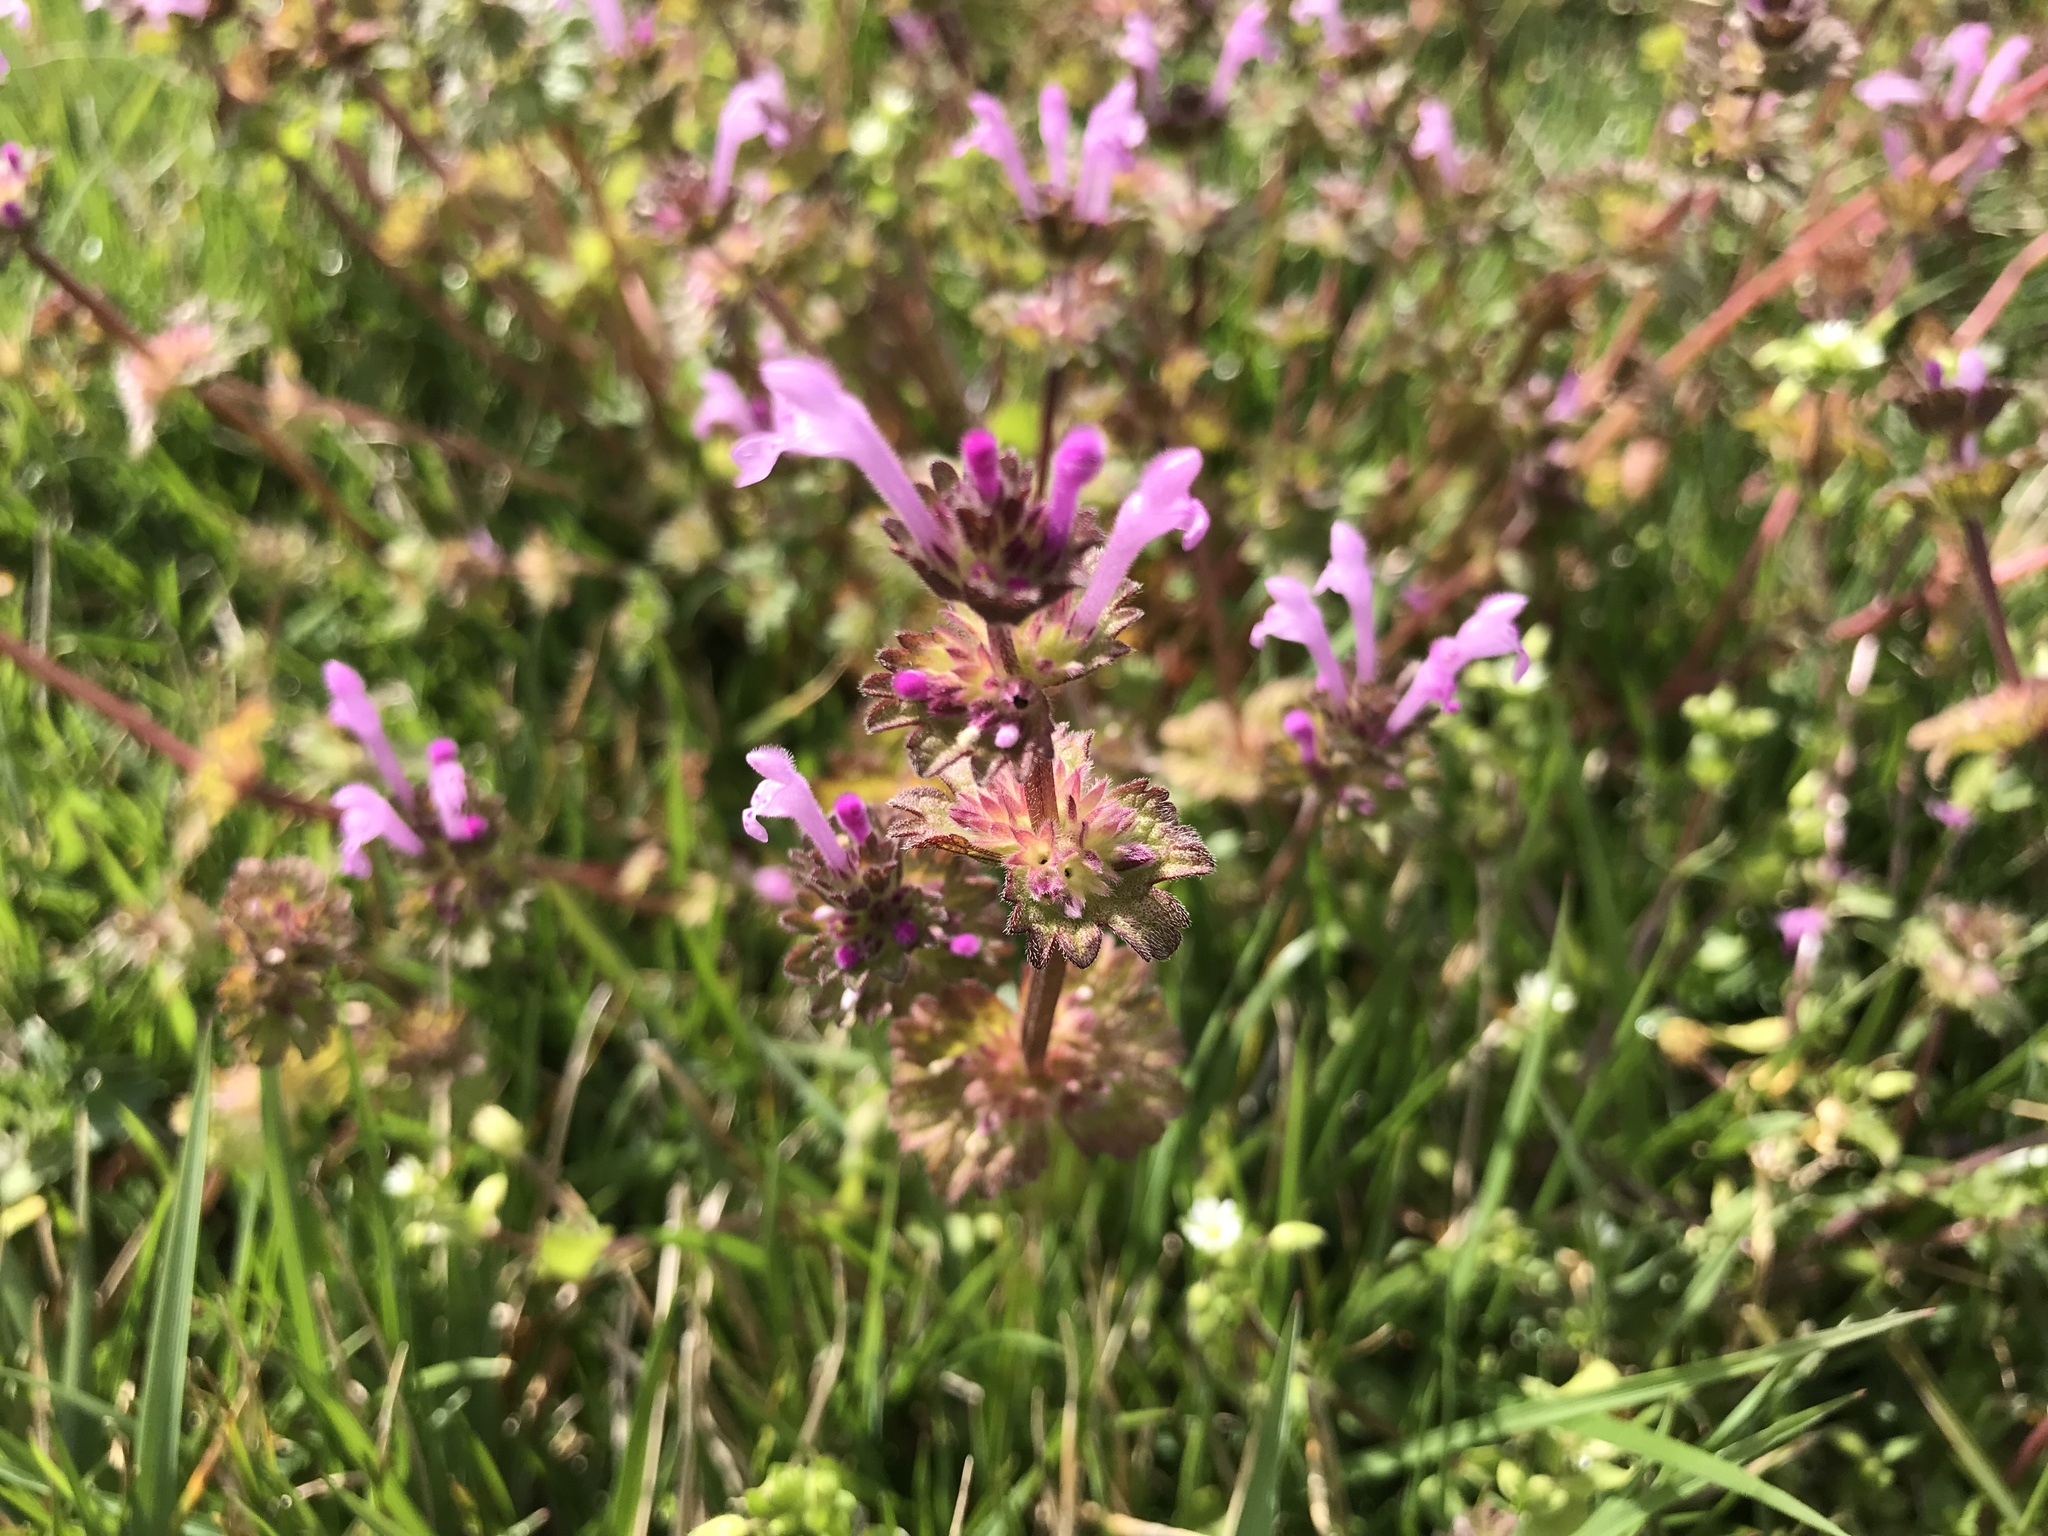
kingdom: Plantae
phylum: Tracheophyta
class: Magnoliopsida
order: Lamiales
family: Lamiaceae
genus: Lamium
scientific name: Lamium amplexicaule
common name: Henbit dead-nettle
